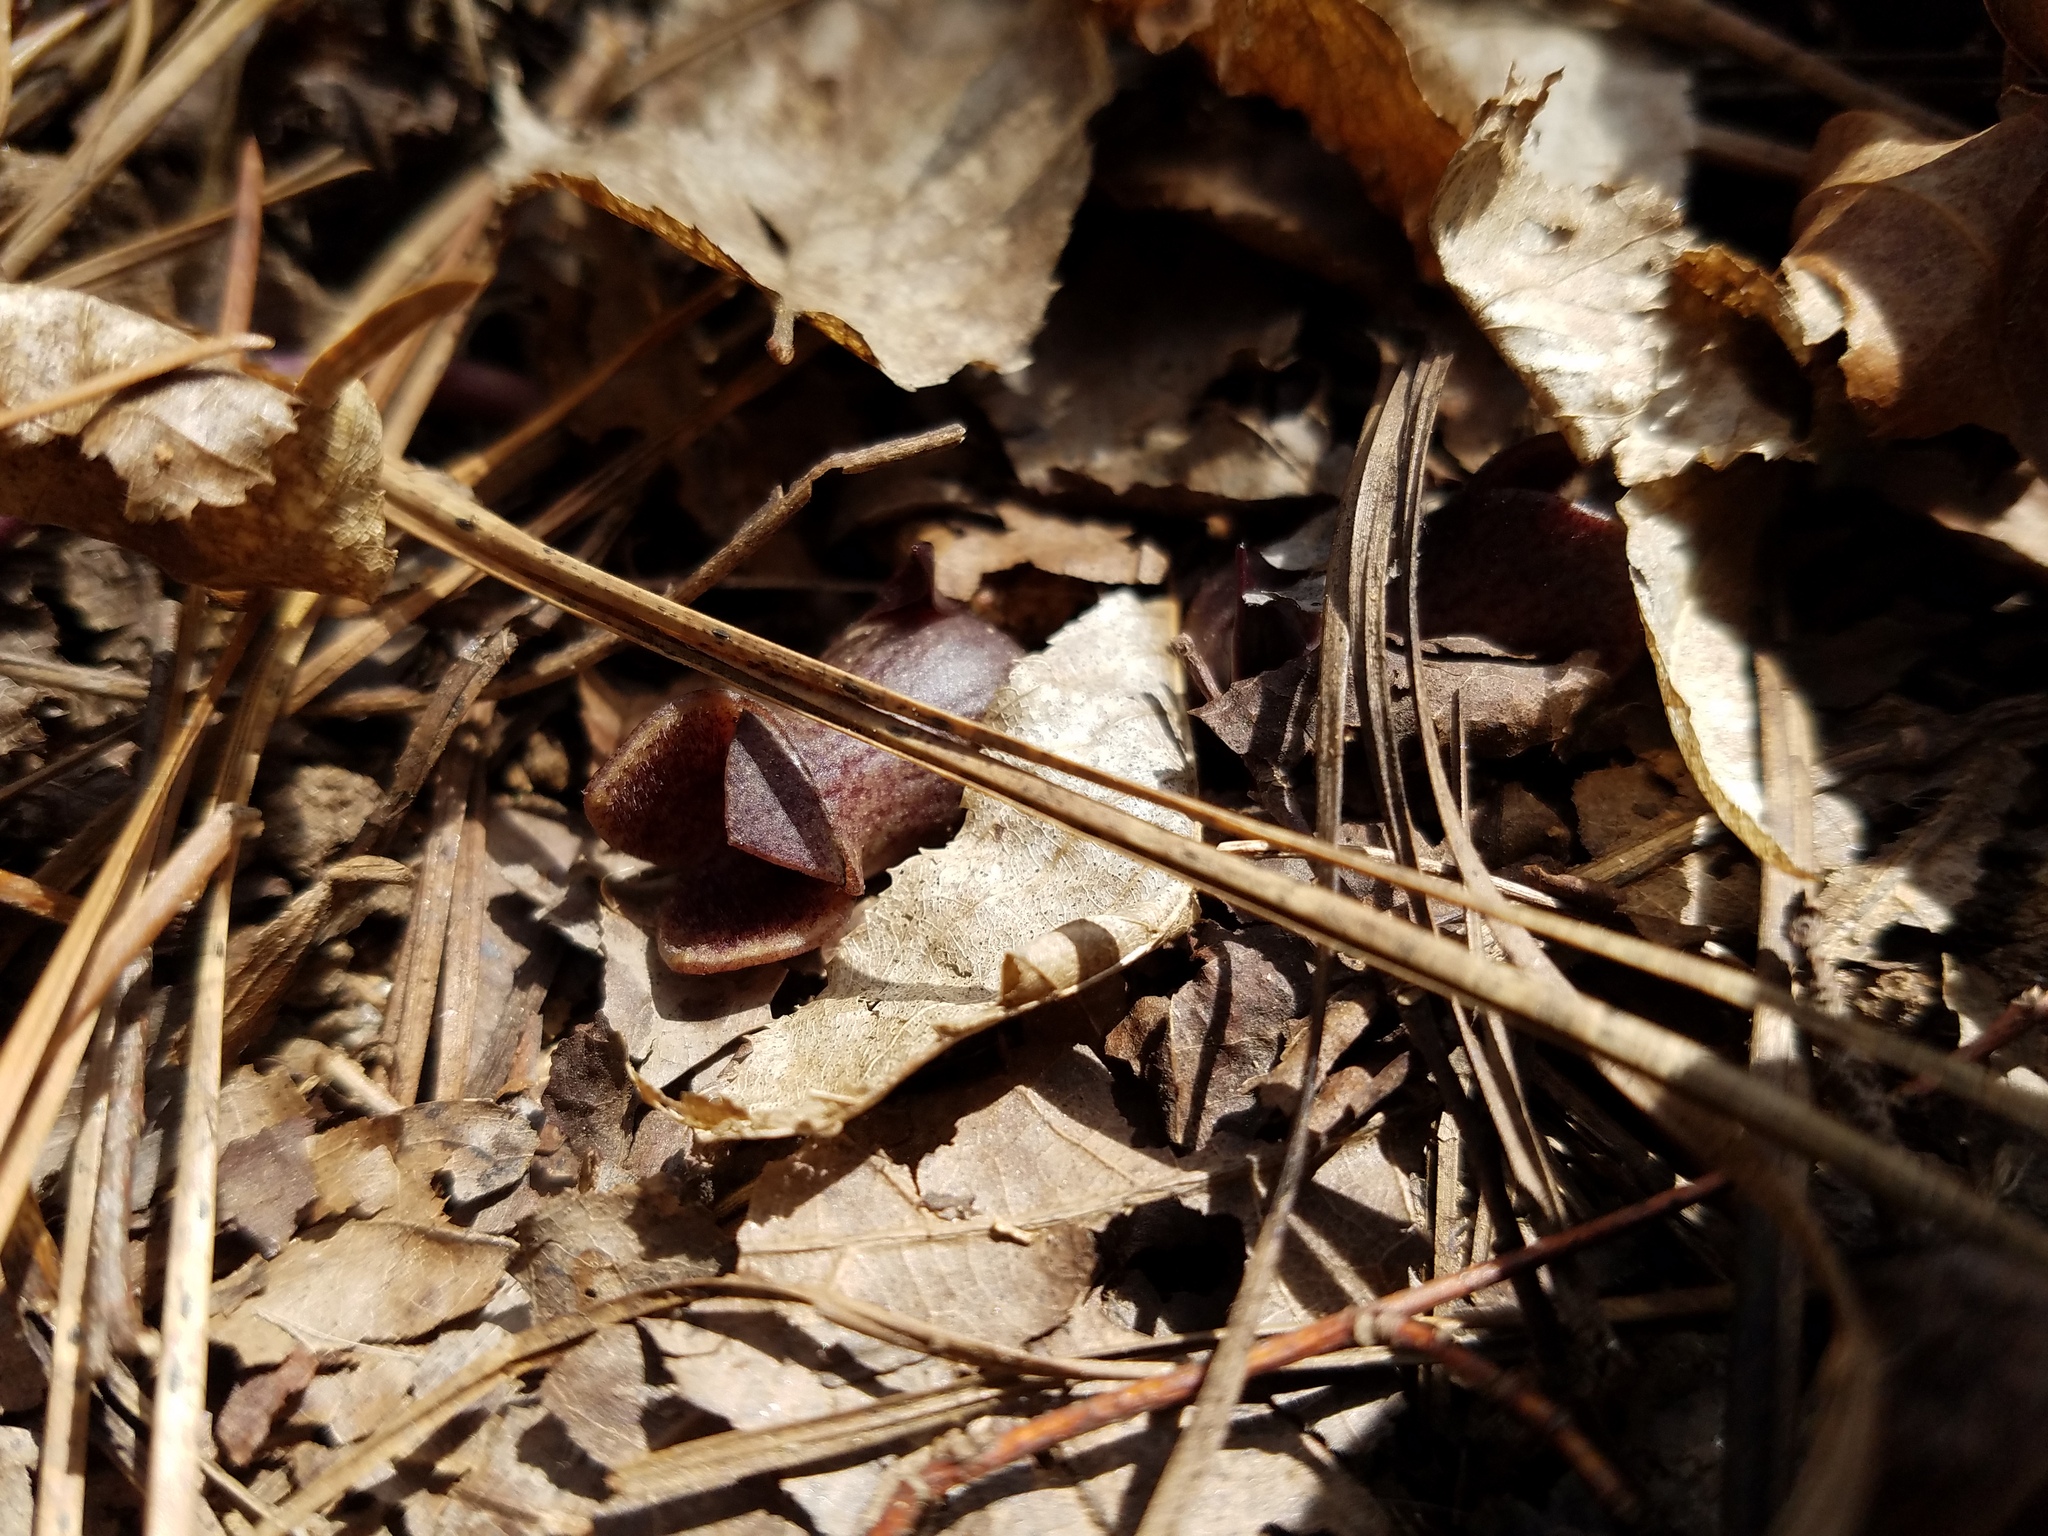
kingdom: Plantae
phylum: Tracheophyta
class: Magnoliopsida
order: Piperales
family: Aristolochiaceae
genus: Hexastylis
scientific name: Hexastylis arifolia
